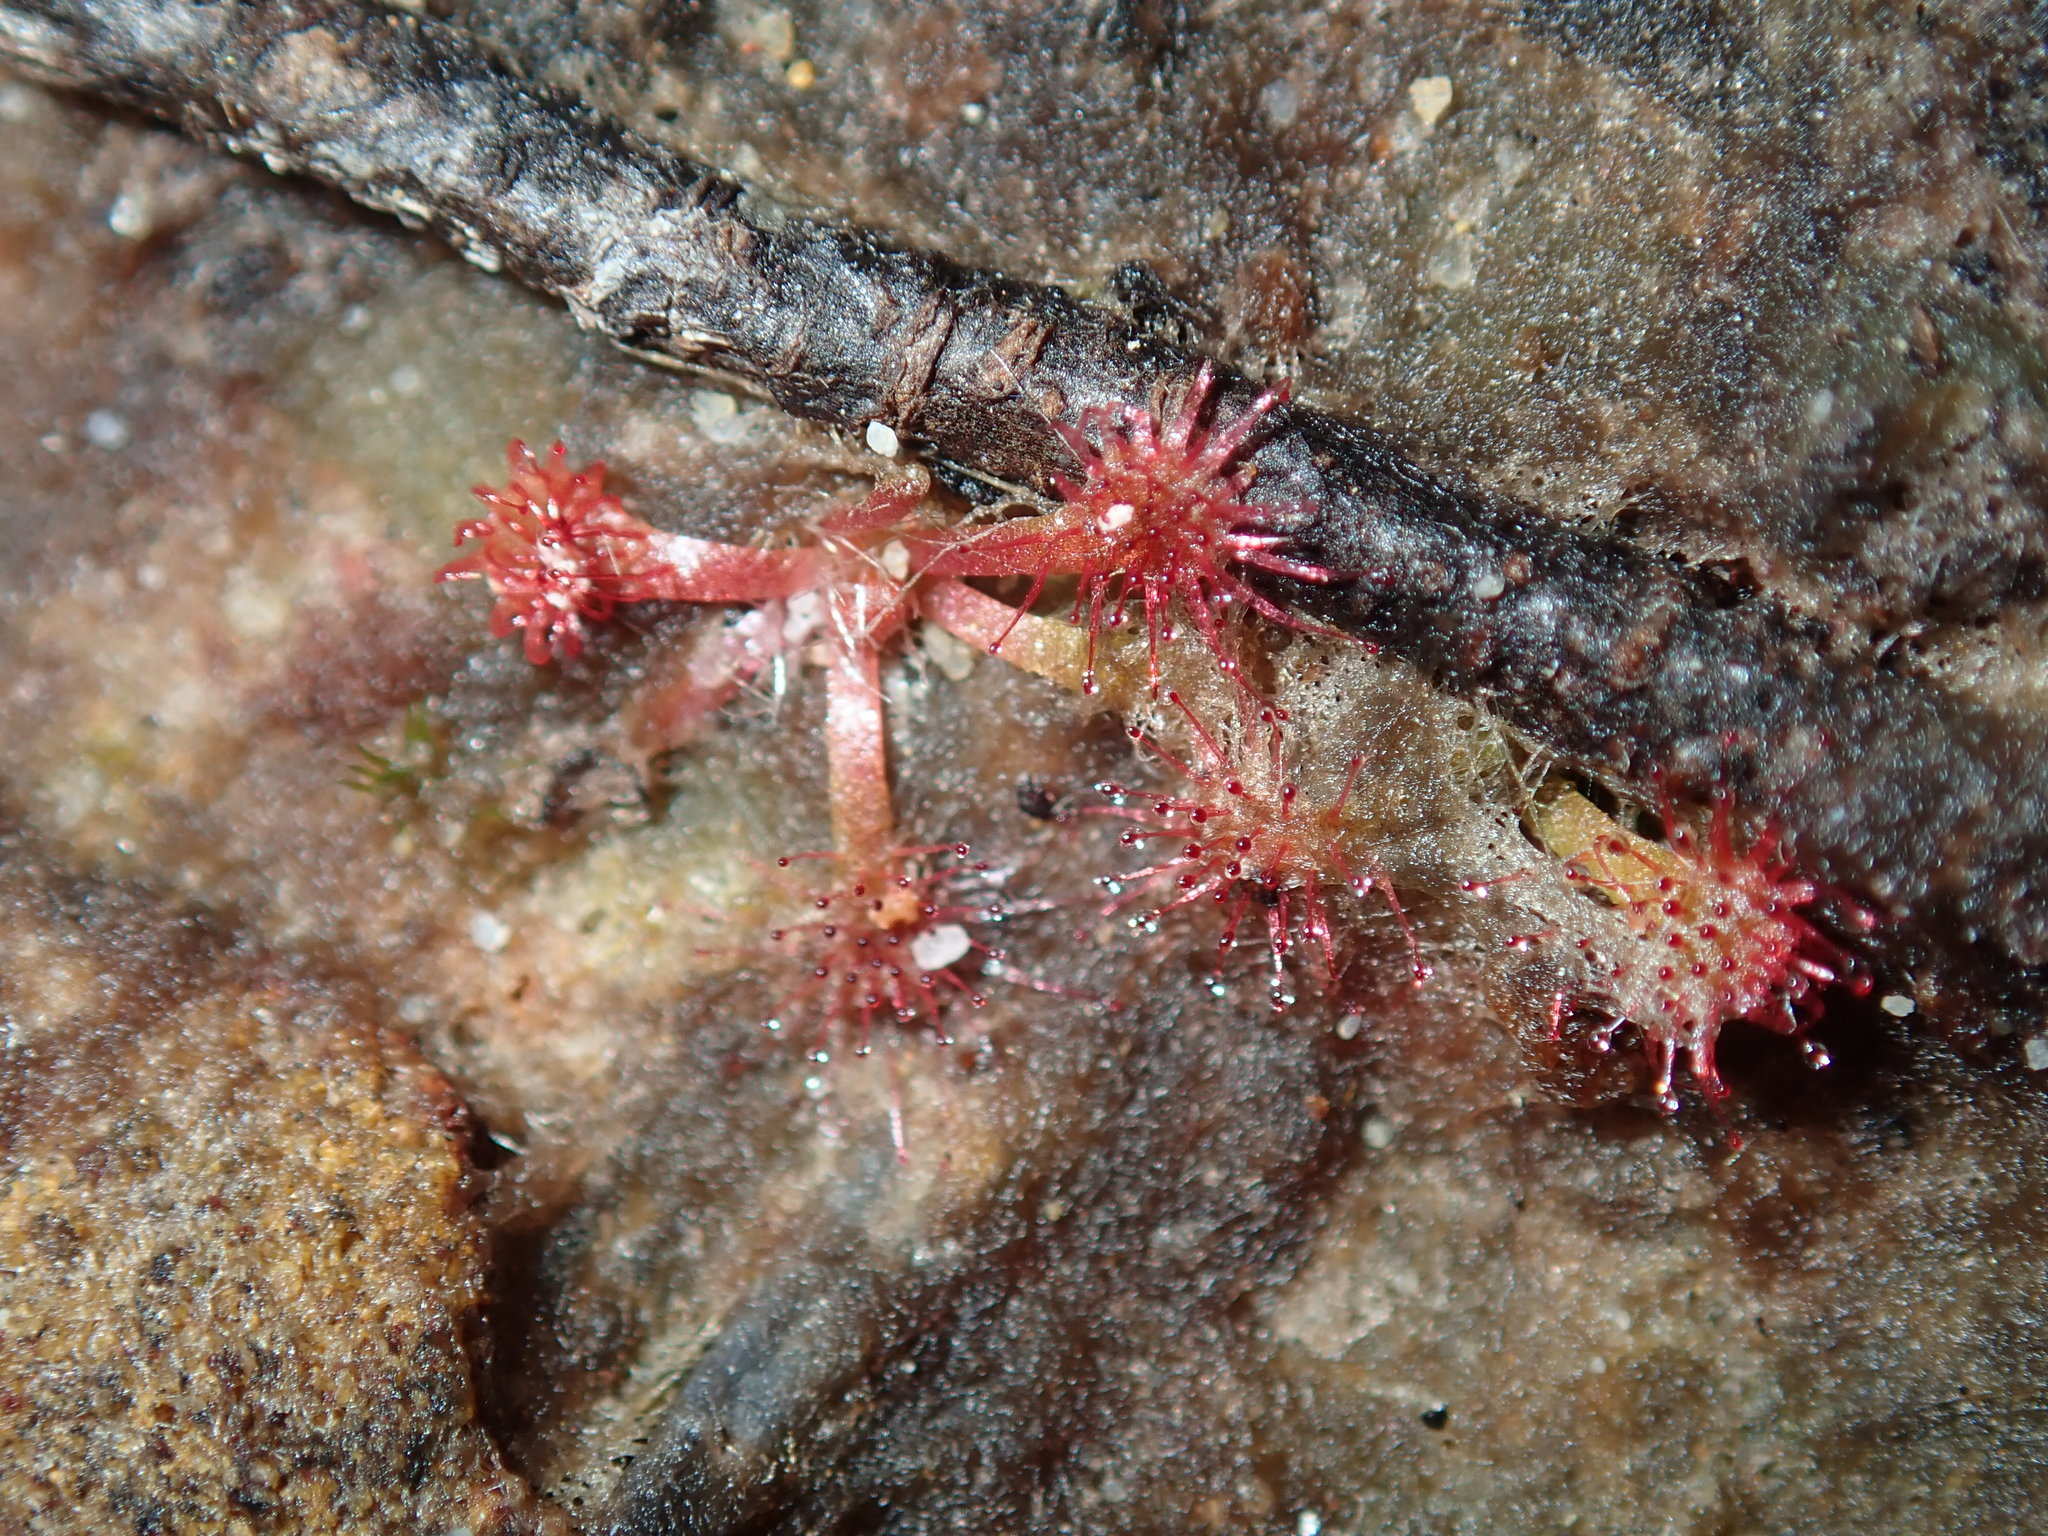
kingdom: Plantae
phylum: Tracheophyta
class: Magnoliopsida
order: Caryophyllales
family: Droseraceae
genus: Drosera
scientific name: Drosera spatulata
